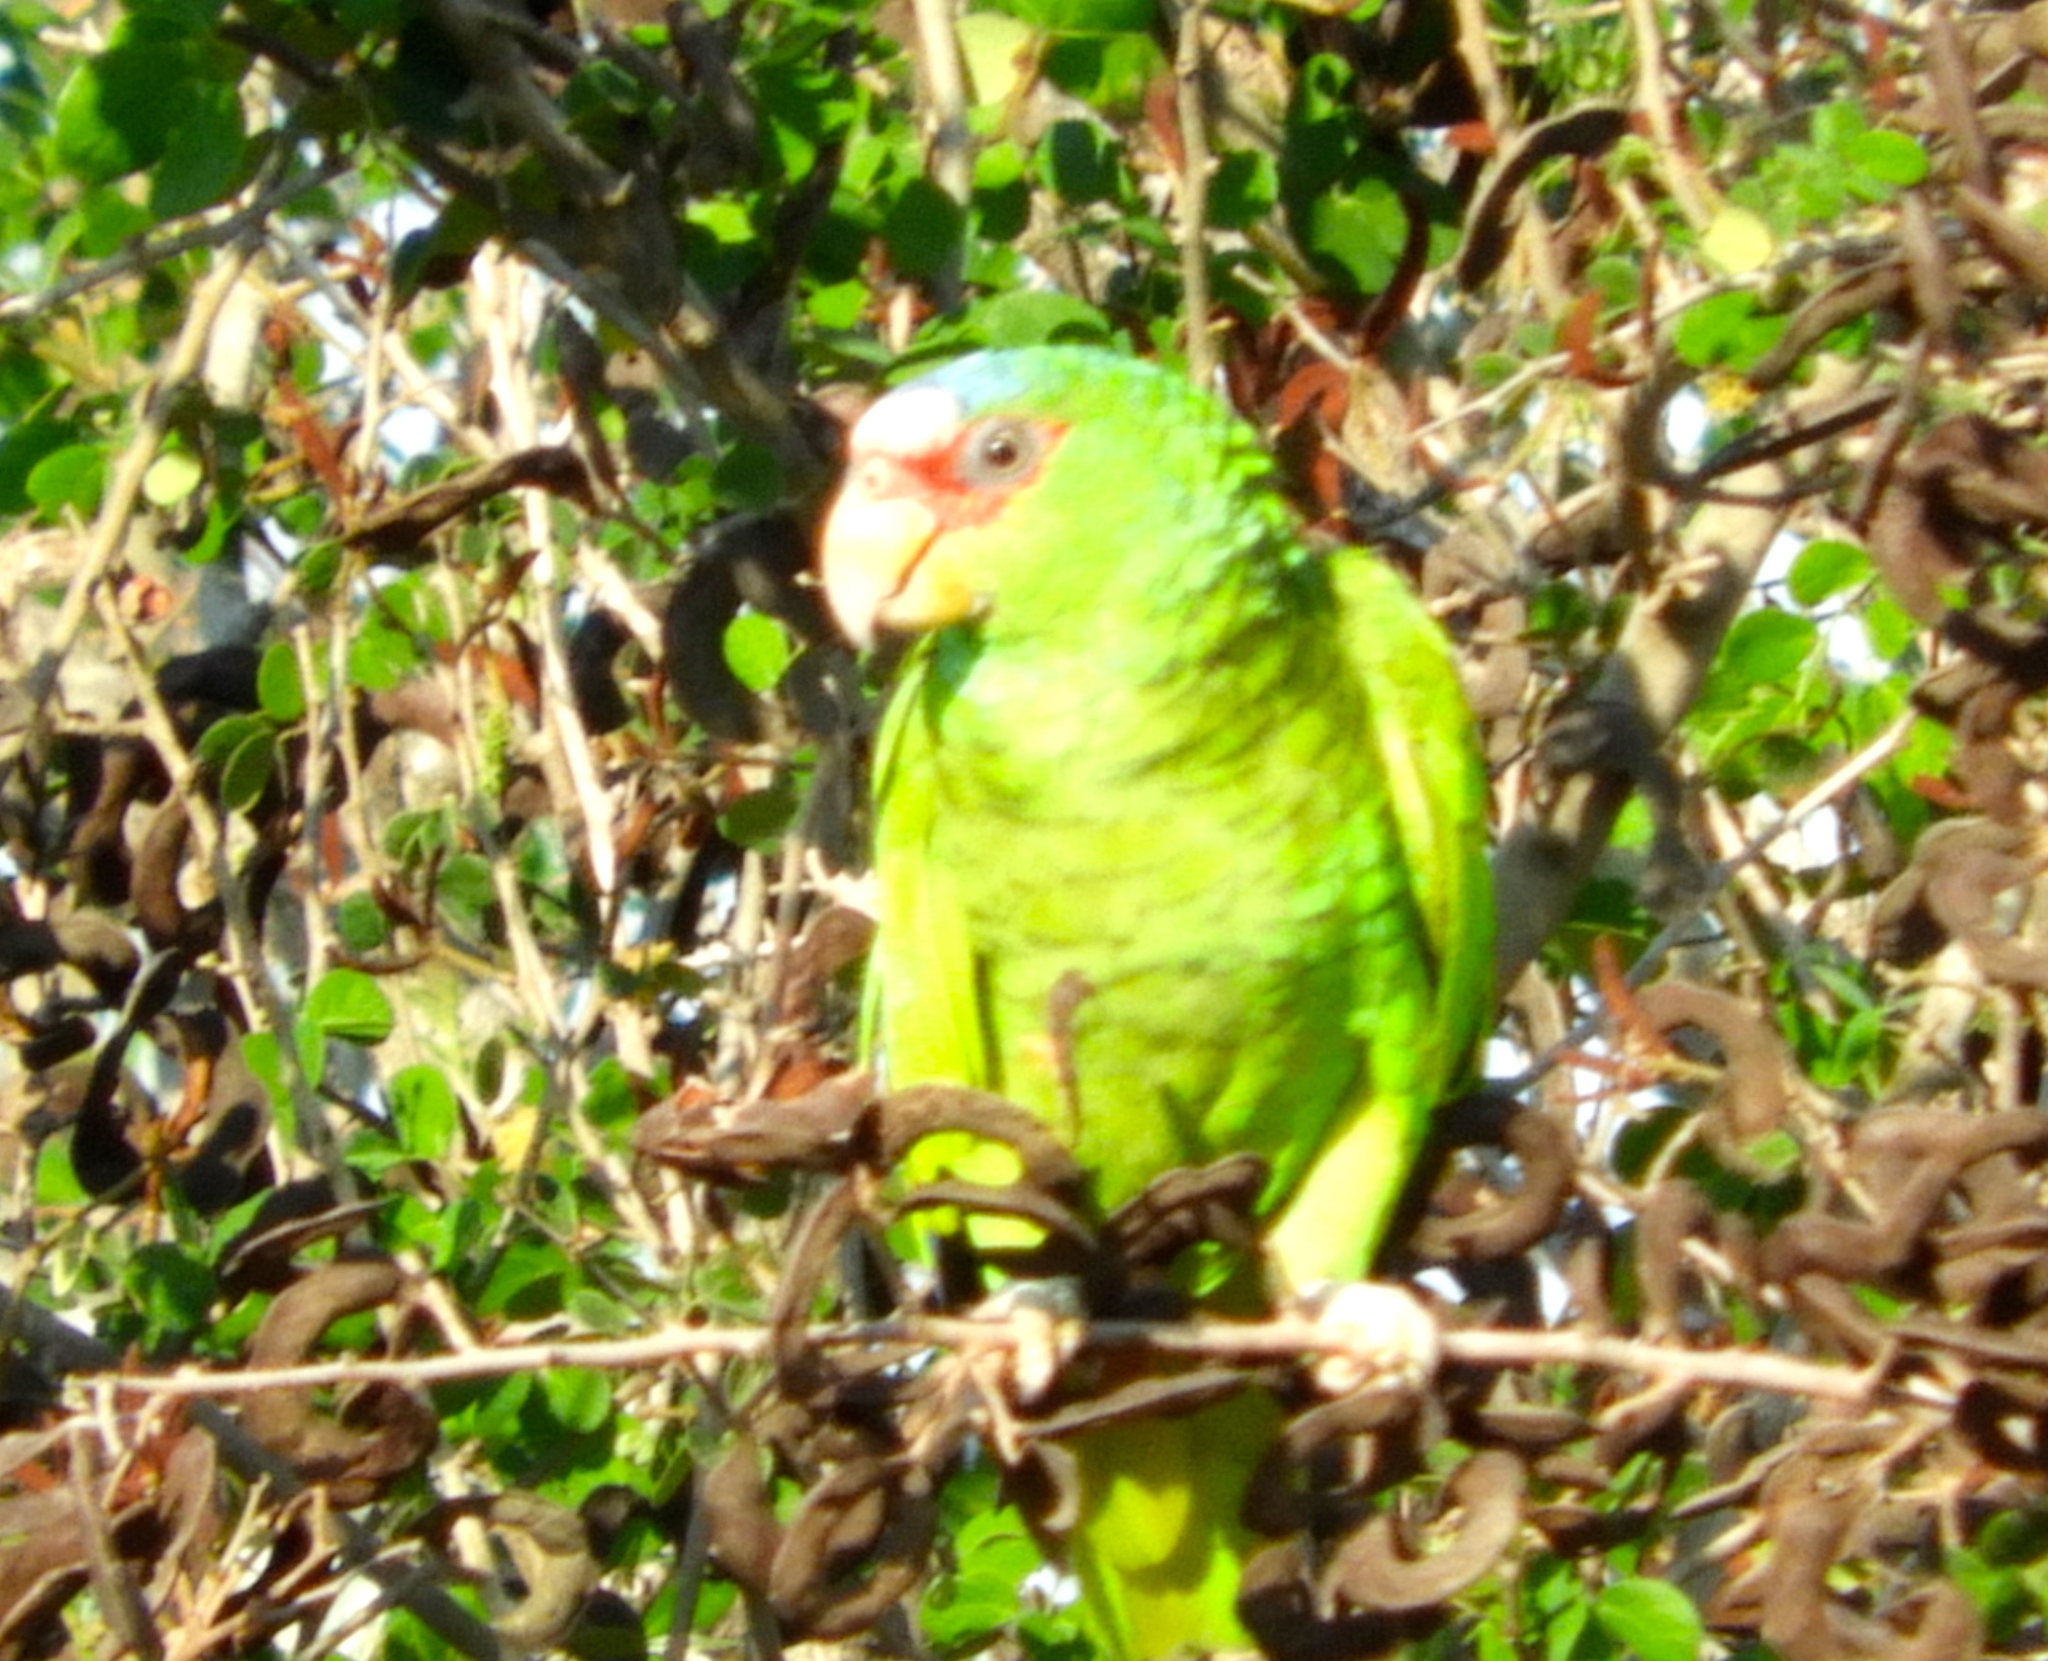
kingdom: Animalia
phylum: Chordata
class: Aves
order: Psittaciformes
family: Psittacidae
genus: Amazona
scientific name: Amazona albifrons
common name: White-fronted amazon
